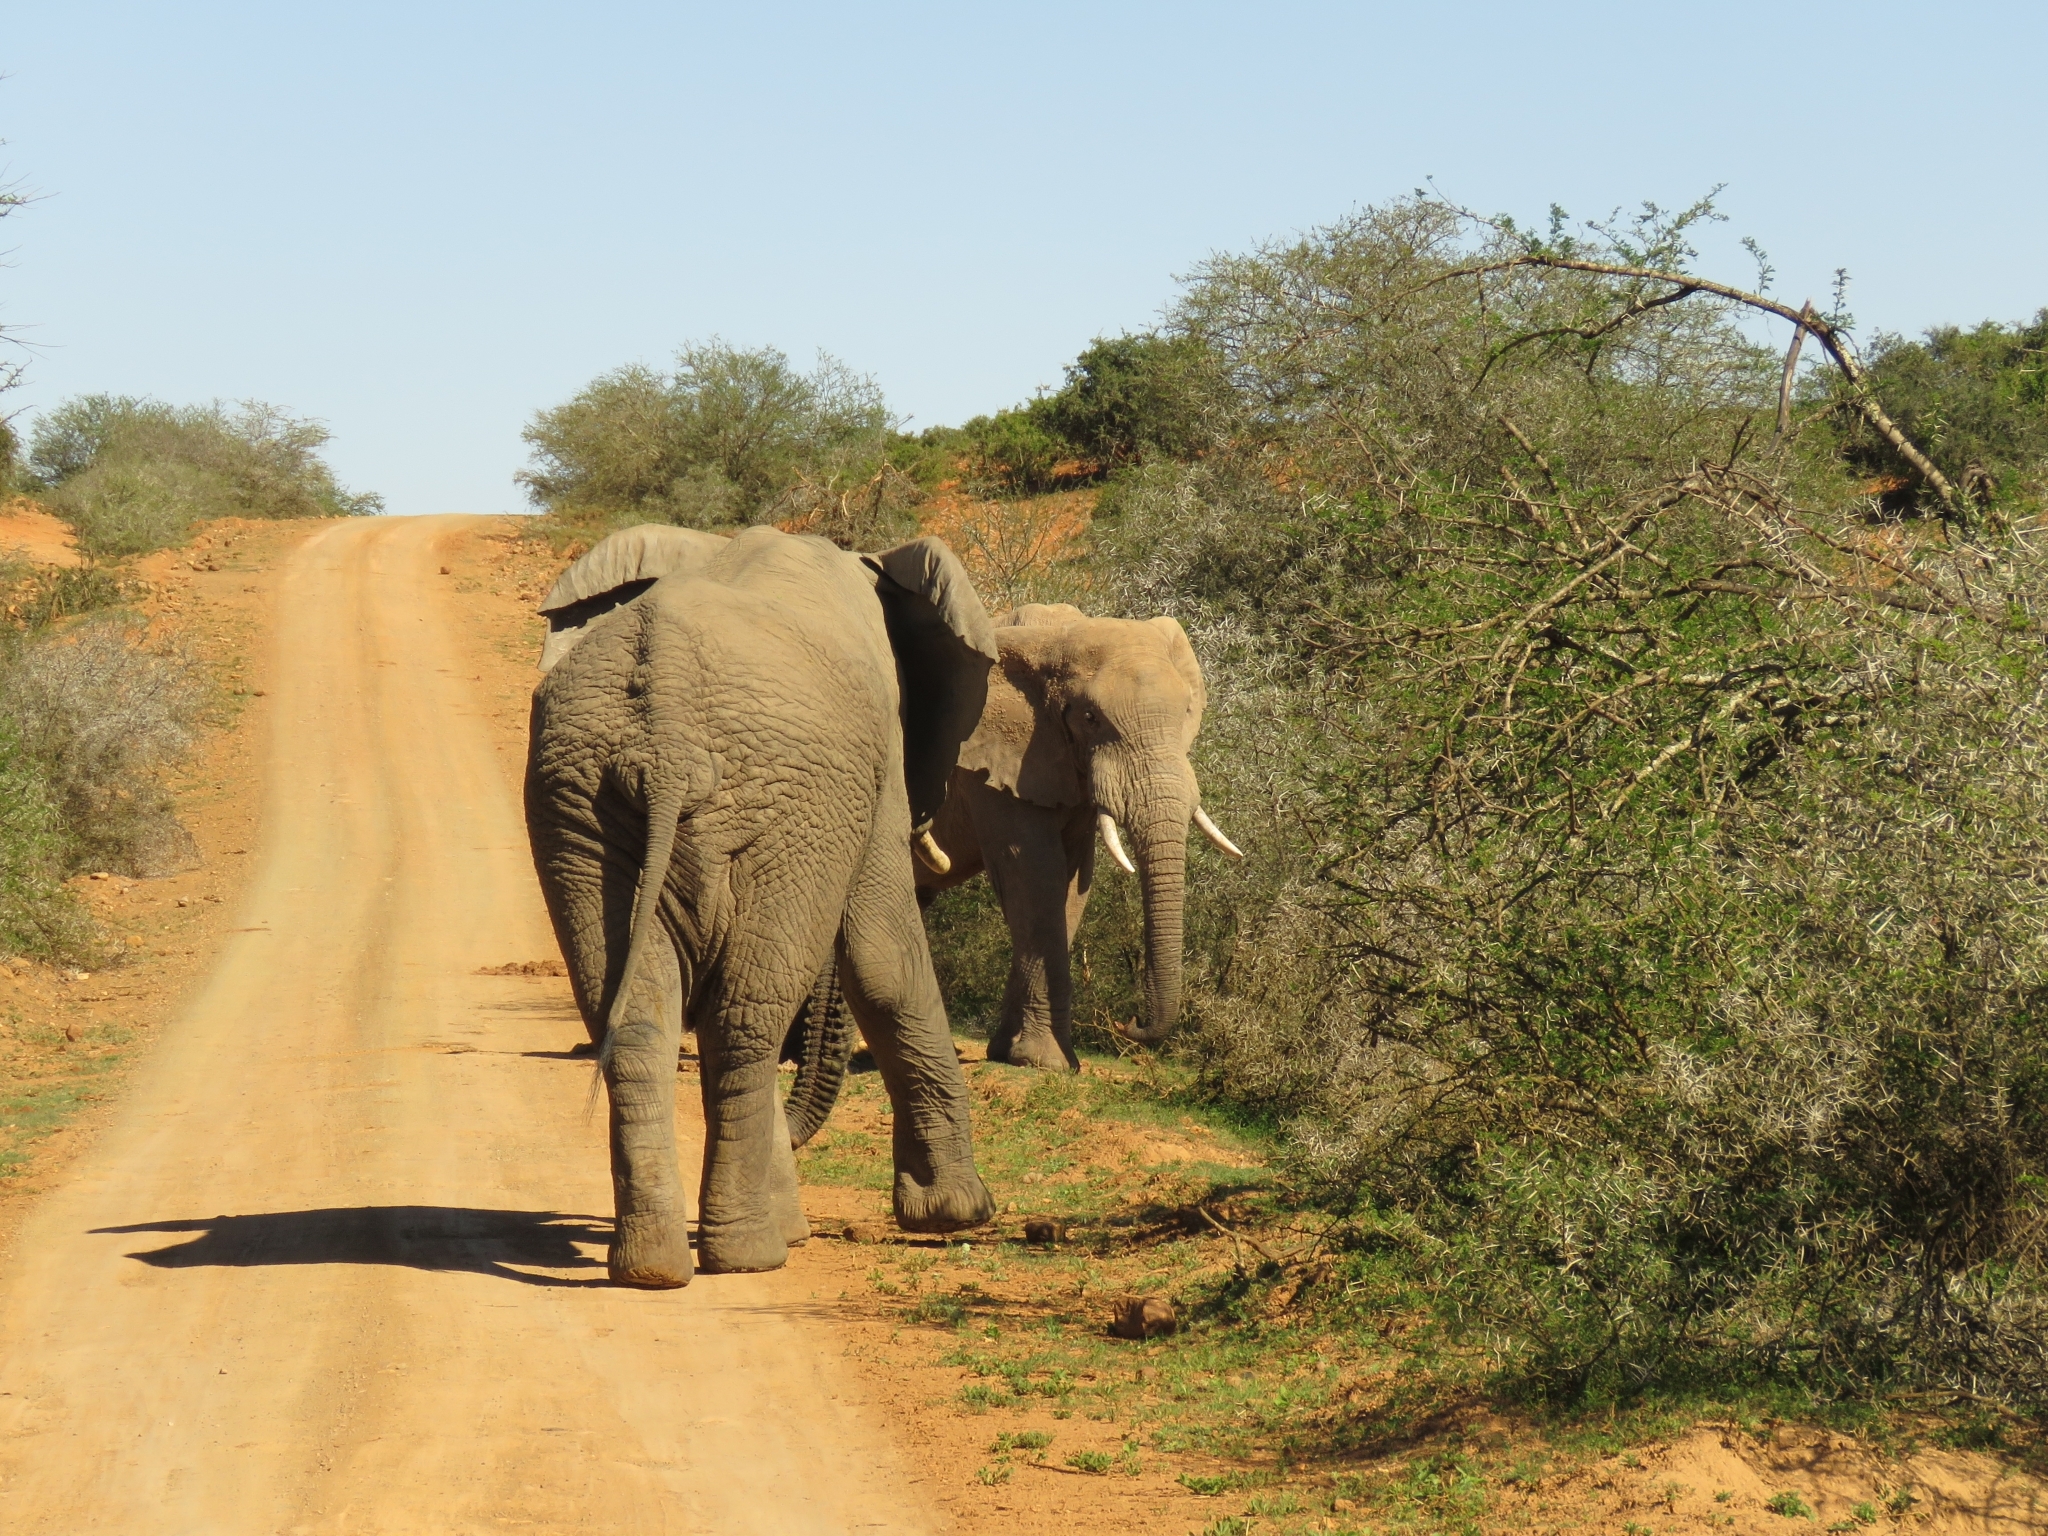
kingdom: Animalia
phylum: Chordata
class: Mammalia
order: Proboscidea
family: Elephantidae
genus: Loxodonta
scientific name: Loxodonta africana
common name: African elephant
